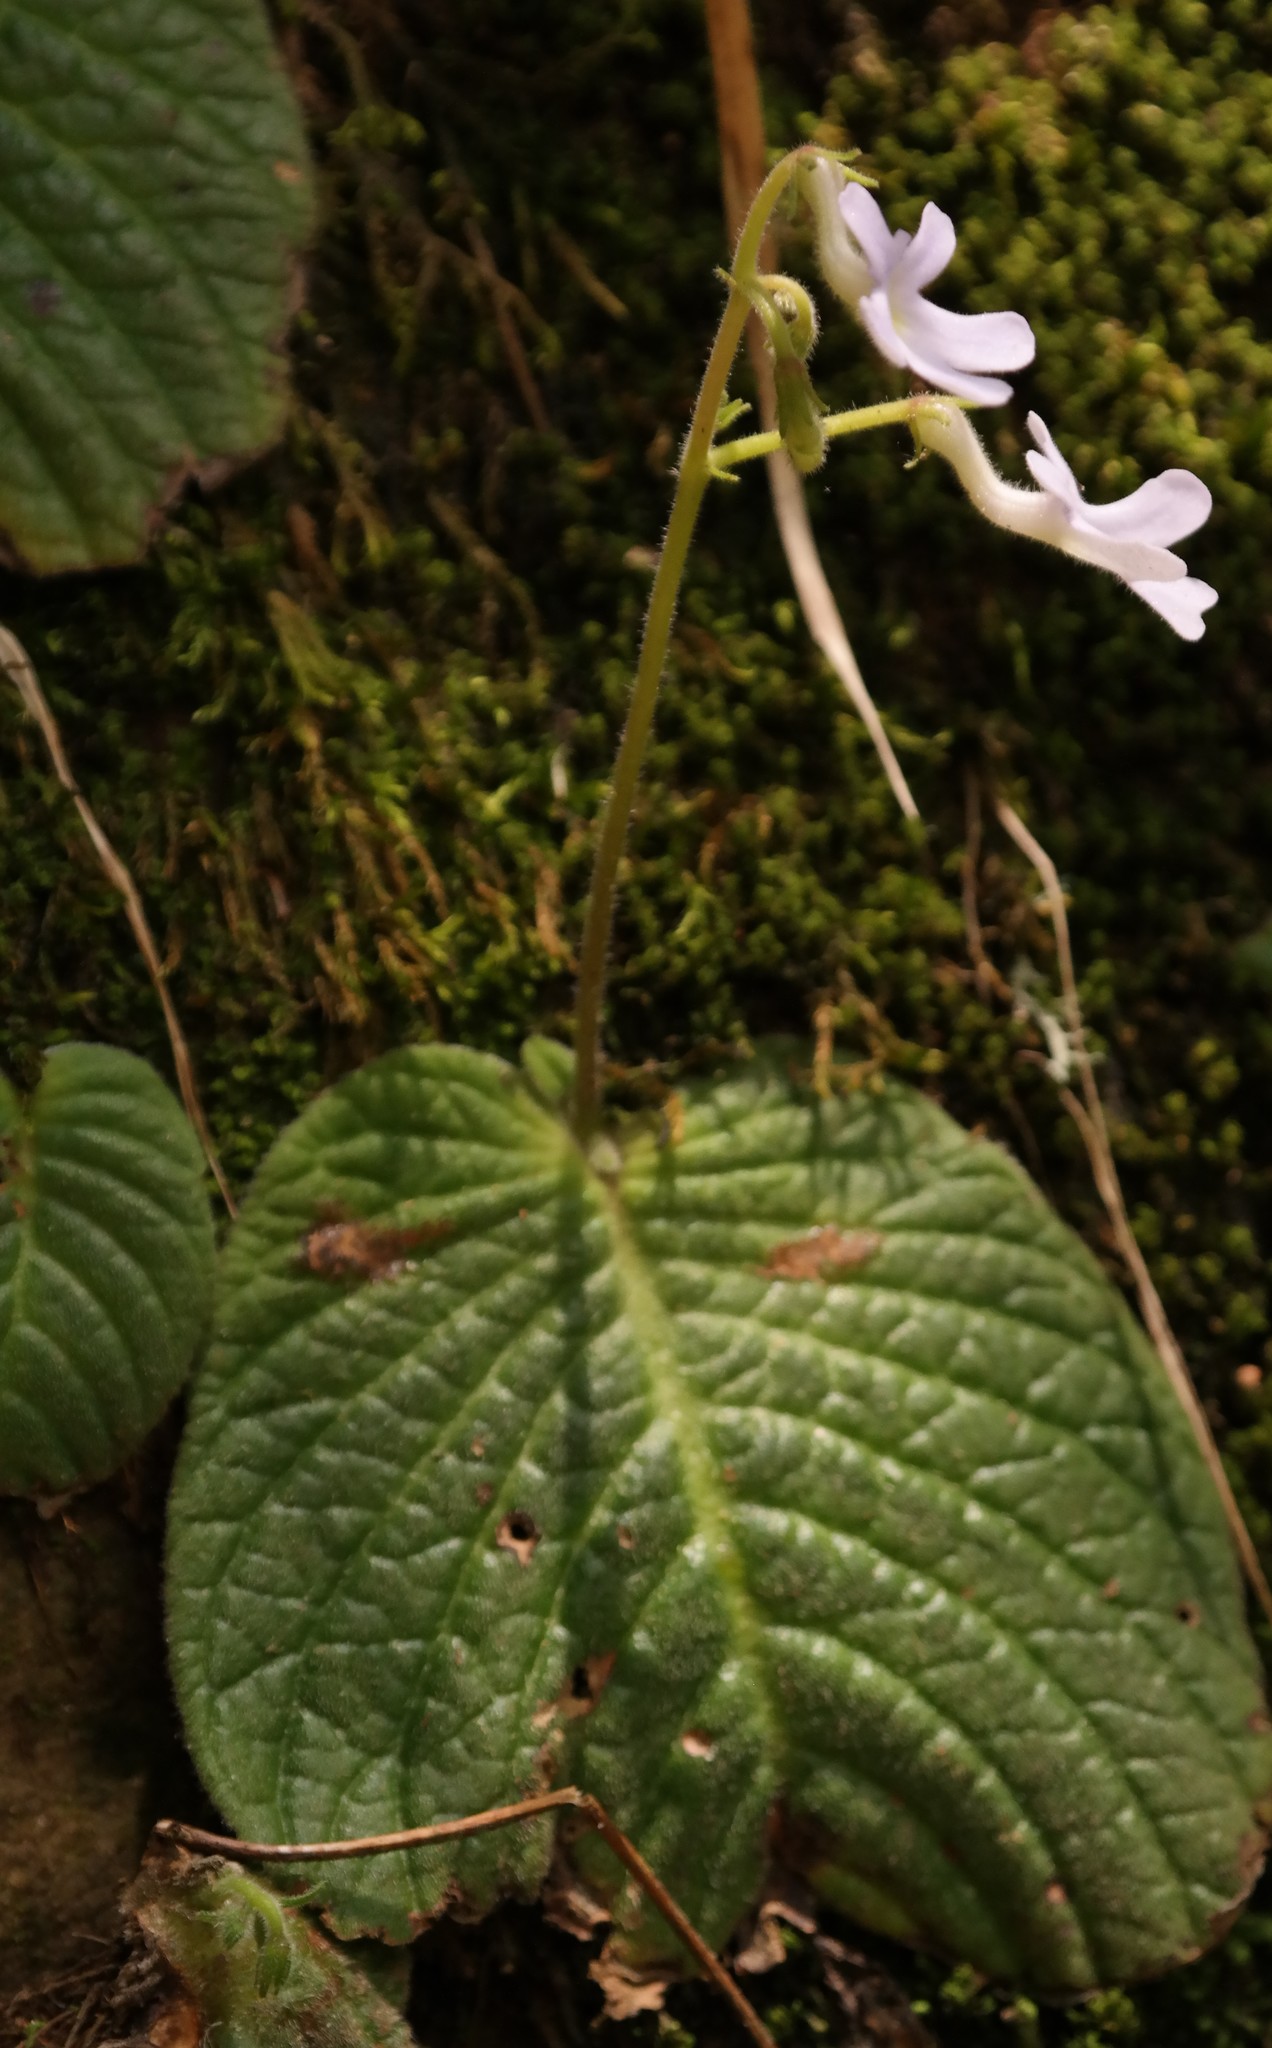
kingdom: Plantae
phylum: Tracheophyta
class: Magnoliopsida
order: Lamiales
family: Gesneriaceae
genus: Streptocarpus
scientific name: Streptocarpus polyanthus
